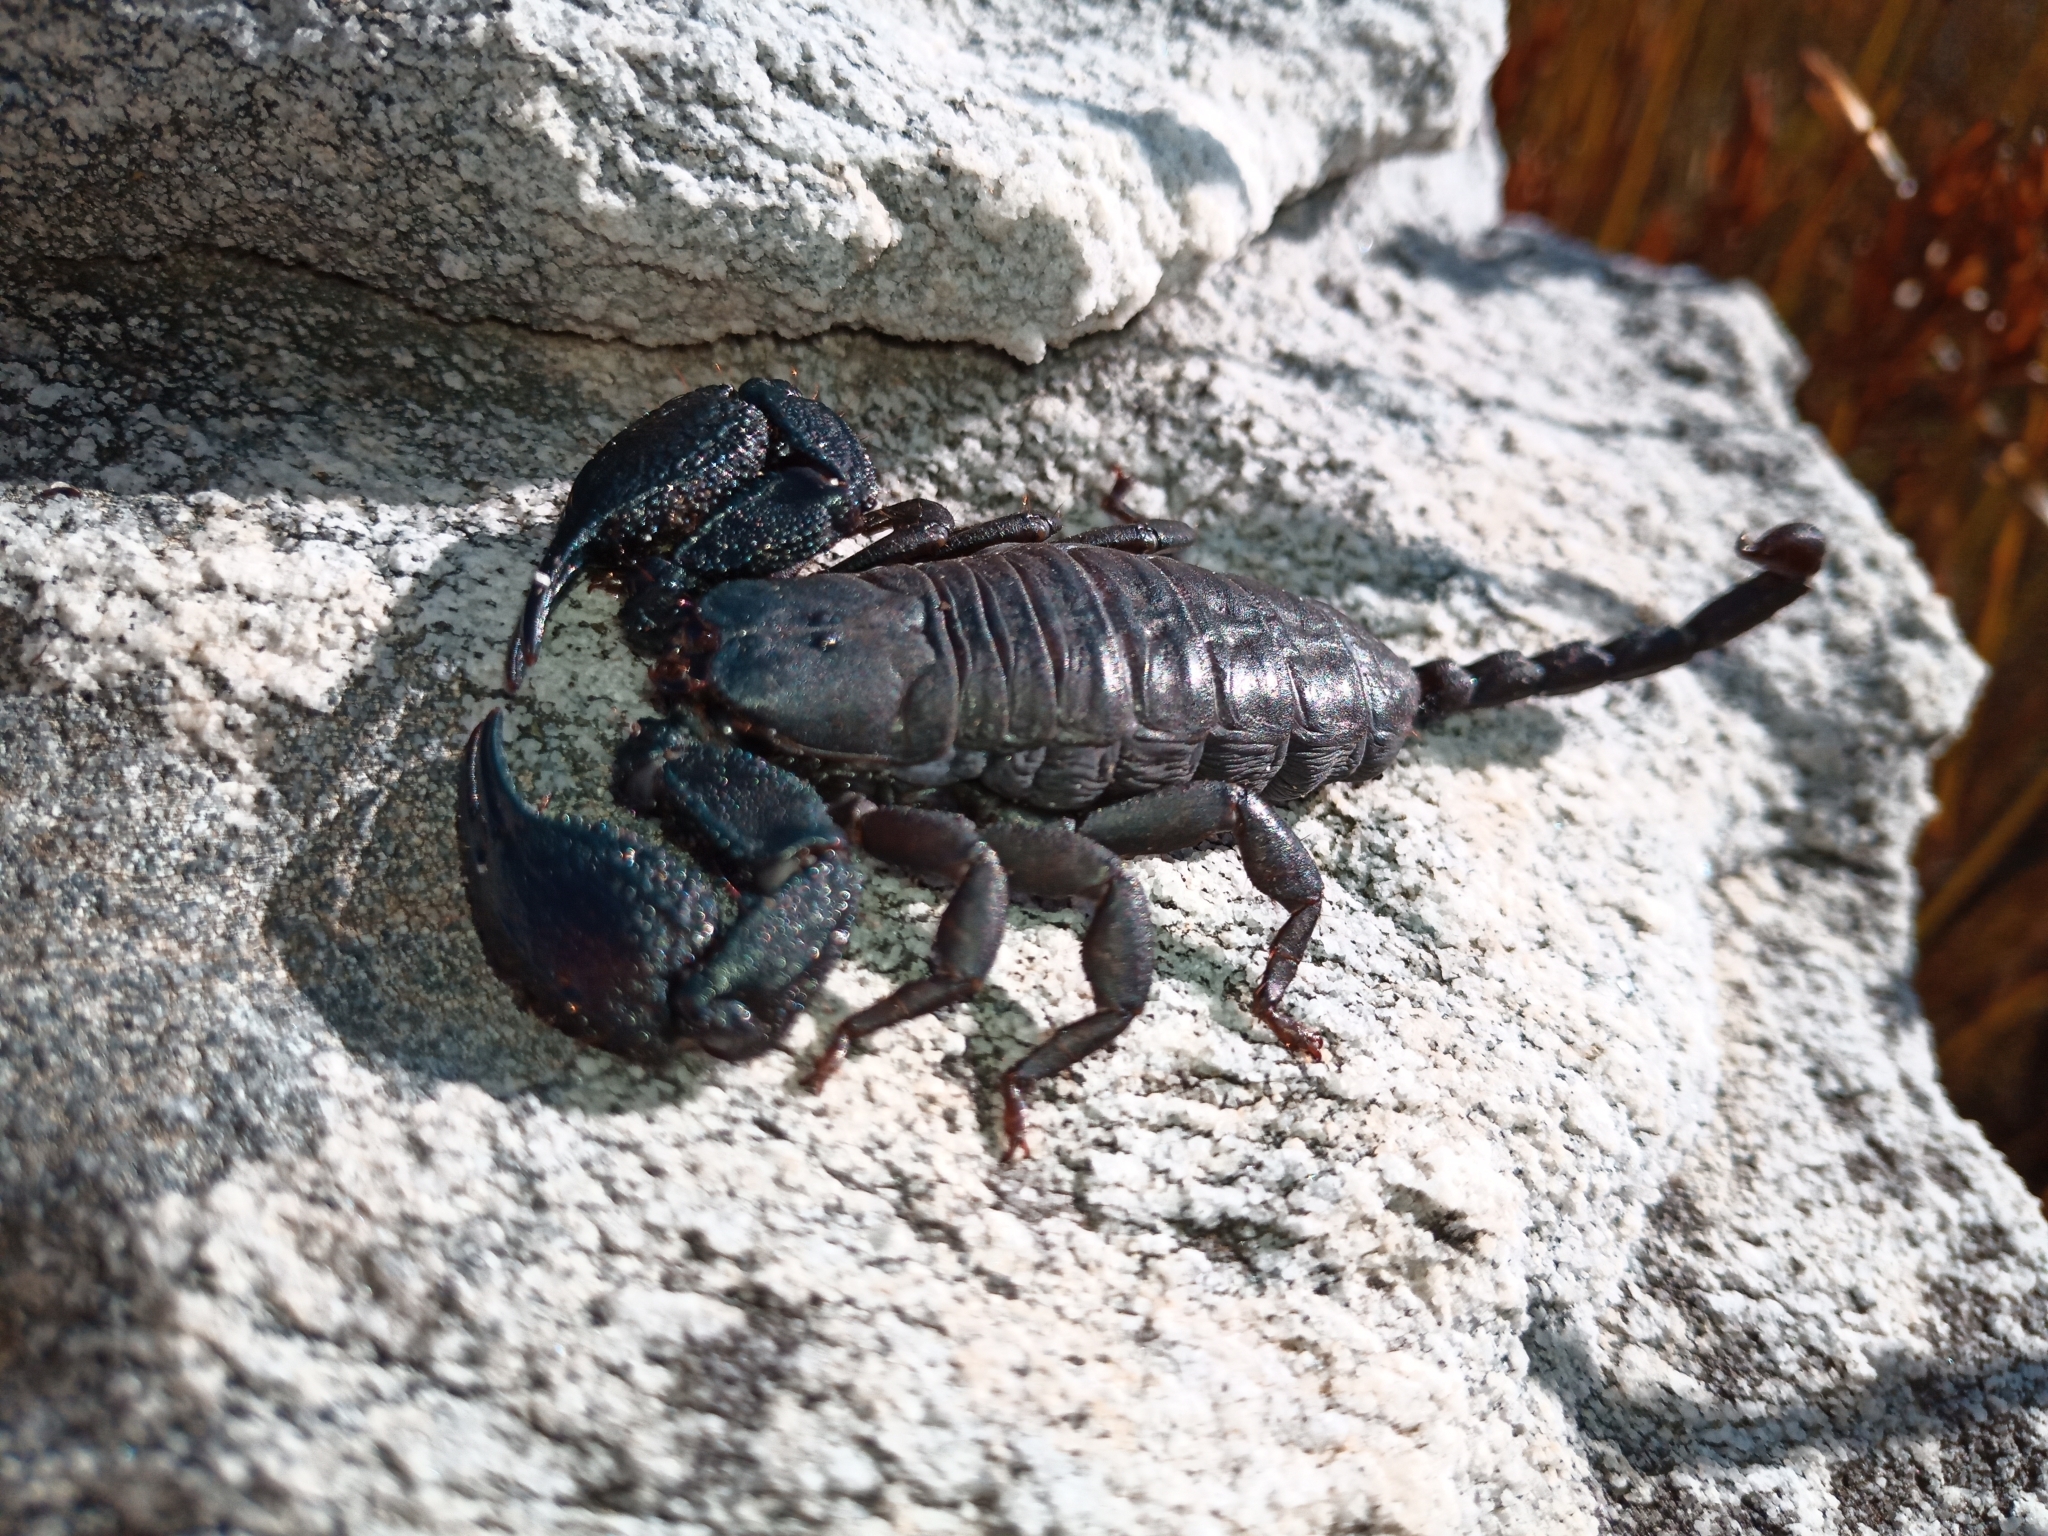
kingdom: Animalia
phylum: Arthropoda
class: Arachnida
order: Scorpiones
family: Hormuridae
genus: Opisthacanthus
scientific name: Opisthacanthus capensis
